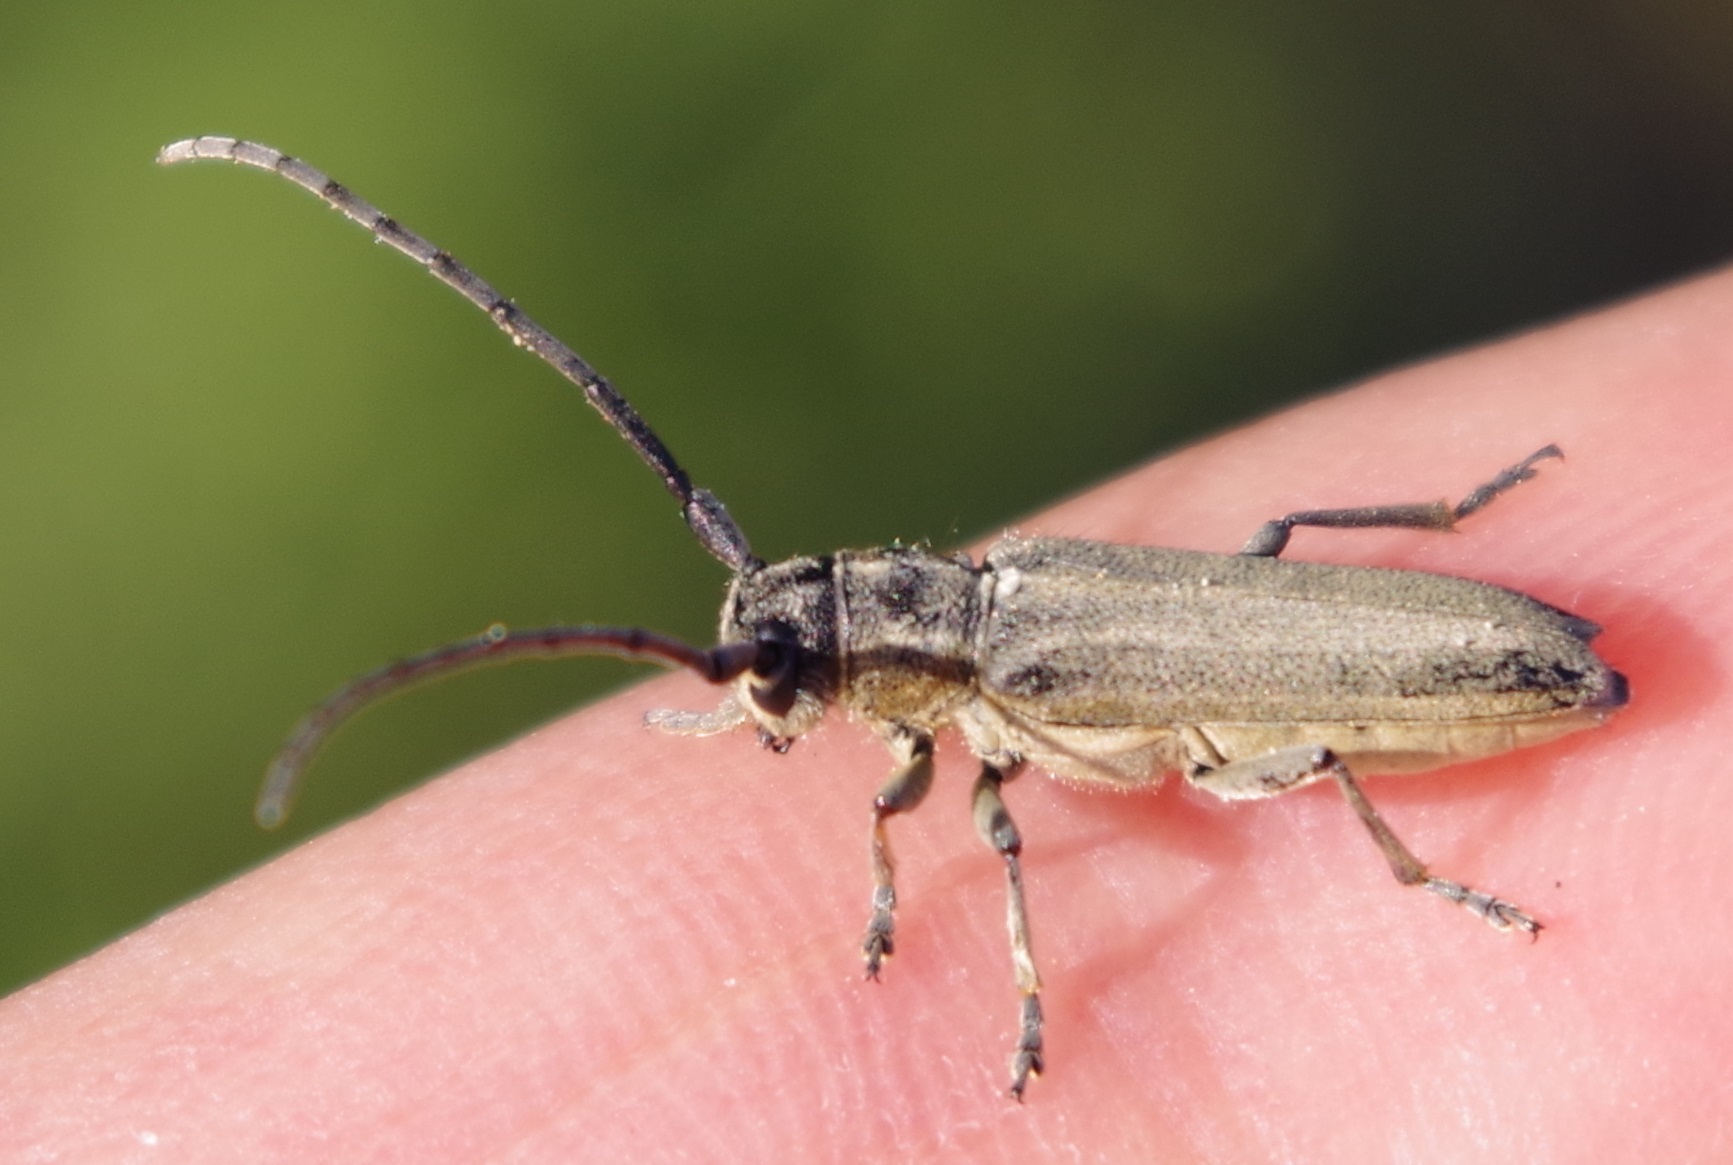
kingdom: Animalia
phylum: Arthropoda
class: Insecta
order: Coleoptera
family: Cerambycidae
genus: Phytoecia
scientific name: Phytoecia nigricornis
